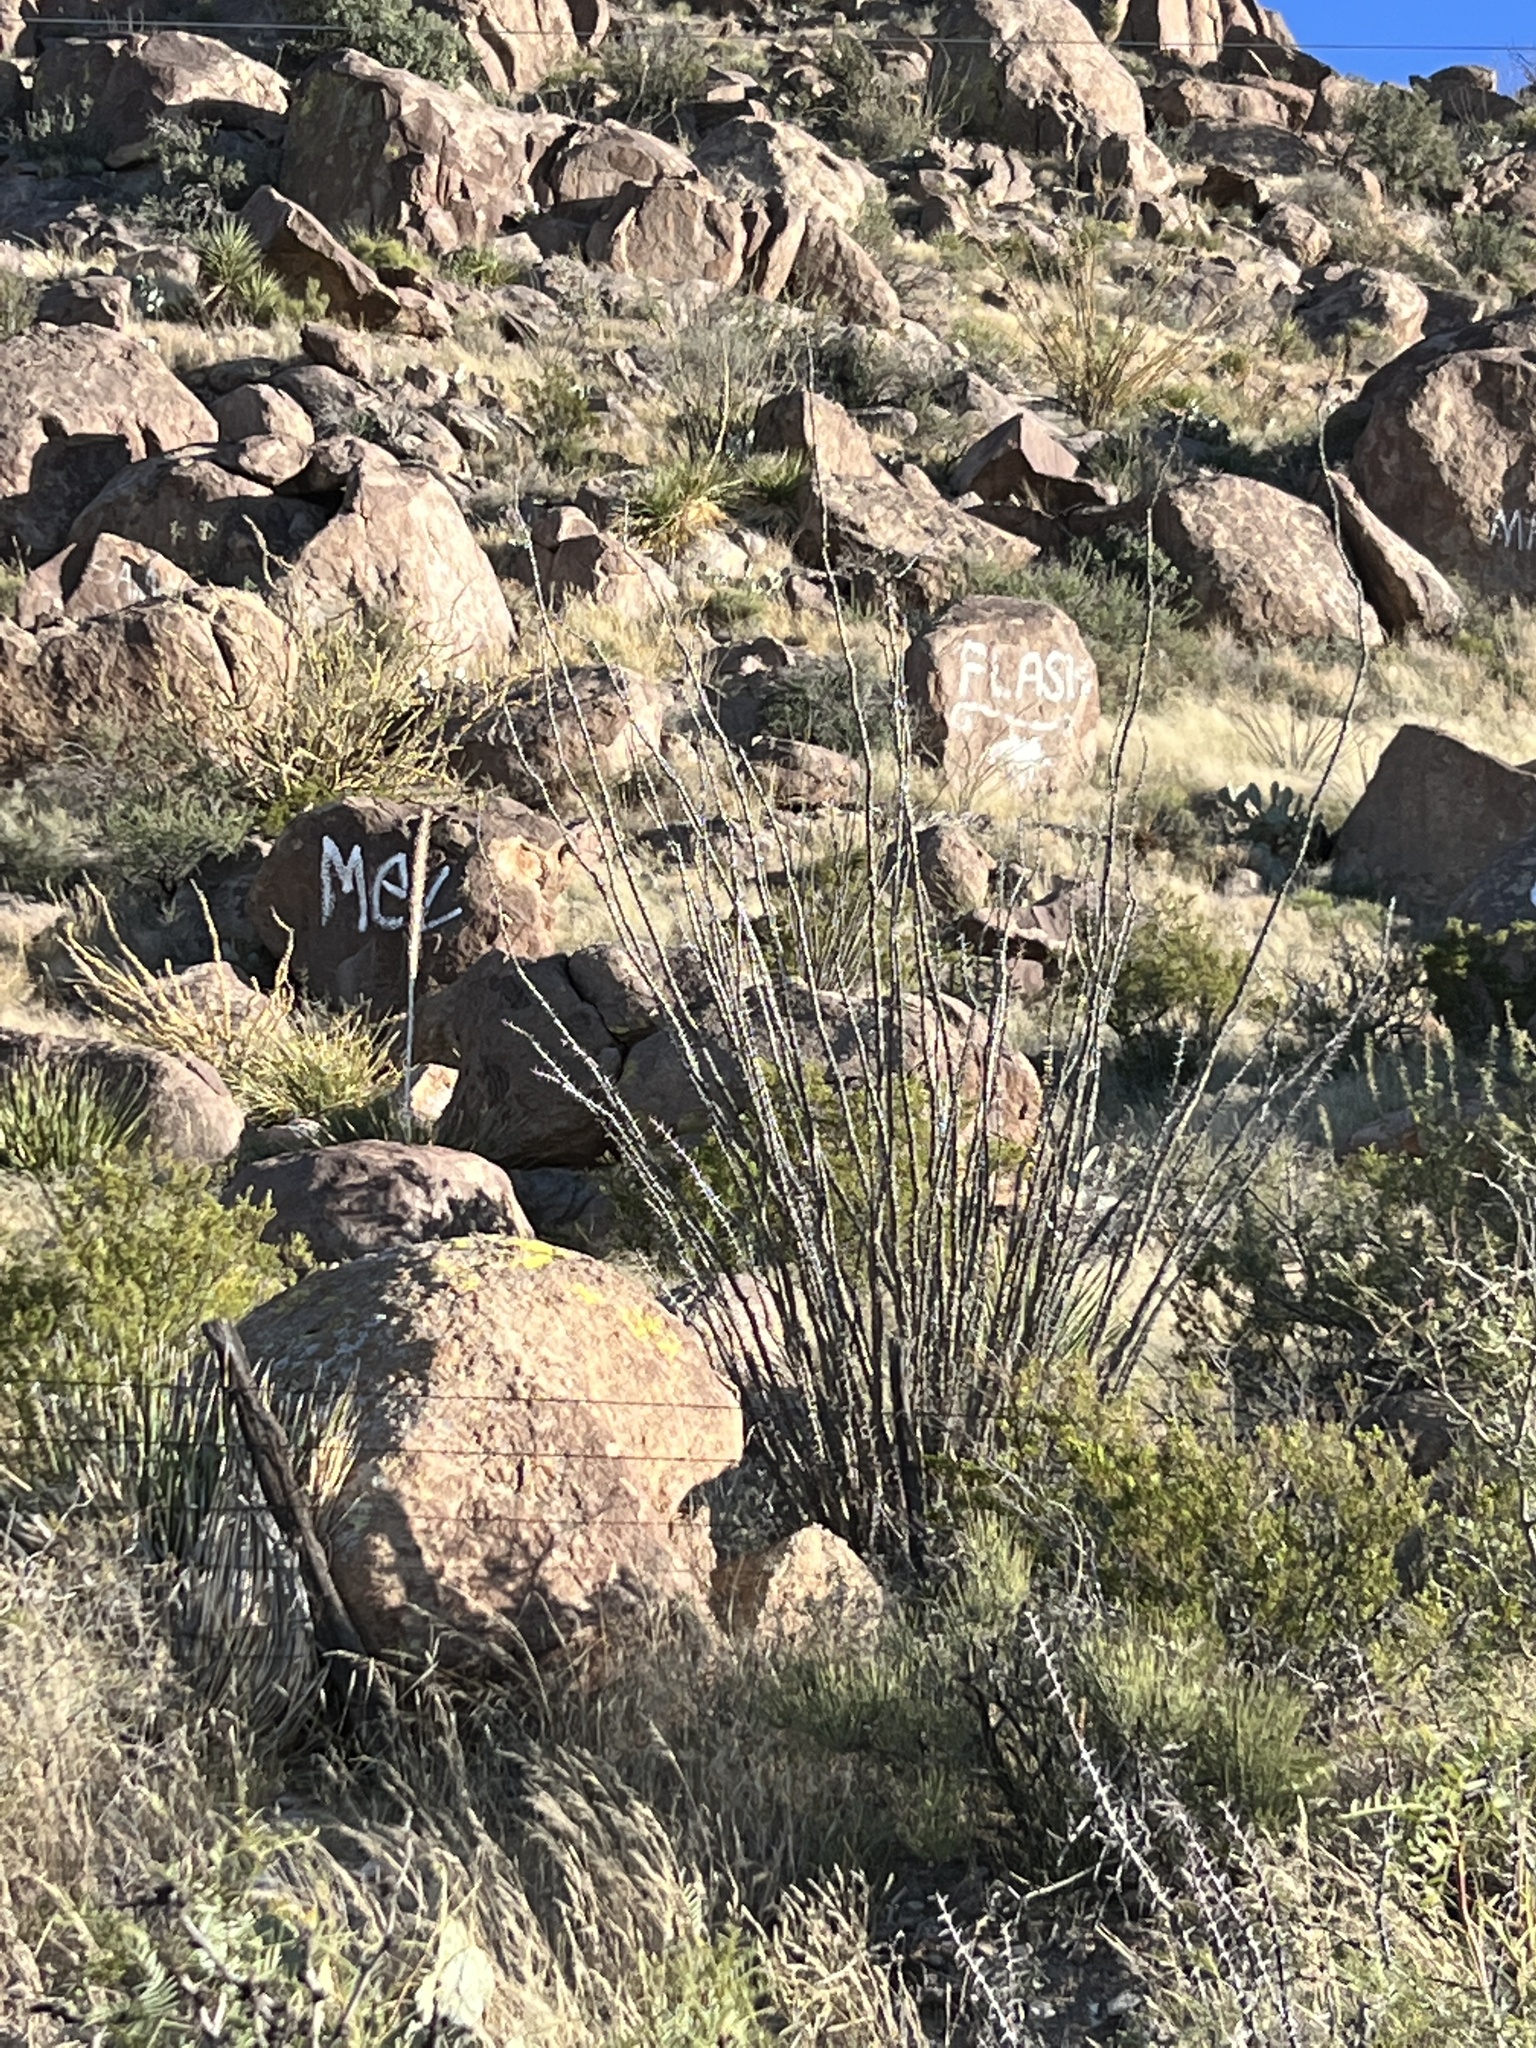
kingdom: Plantae
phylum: Tracheophyta
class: Magnoliopsida
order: Ericales
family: Fouquieriaceae
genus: Fouquieria
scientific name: Fouquieria splendens
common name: Vine-cactus
